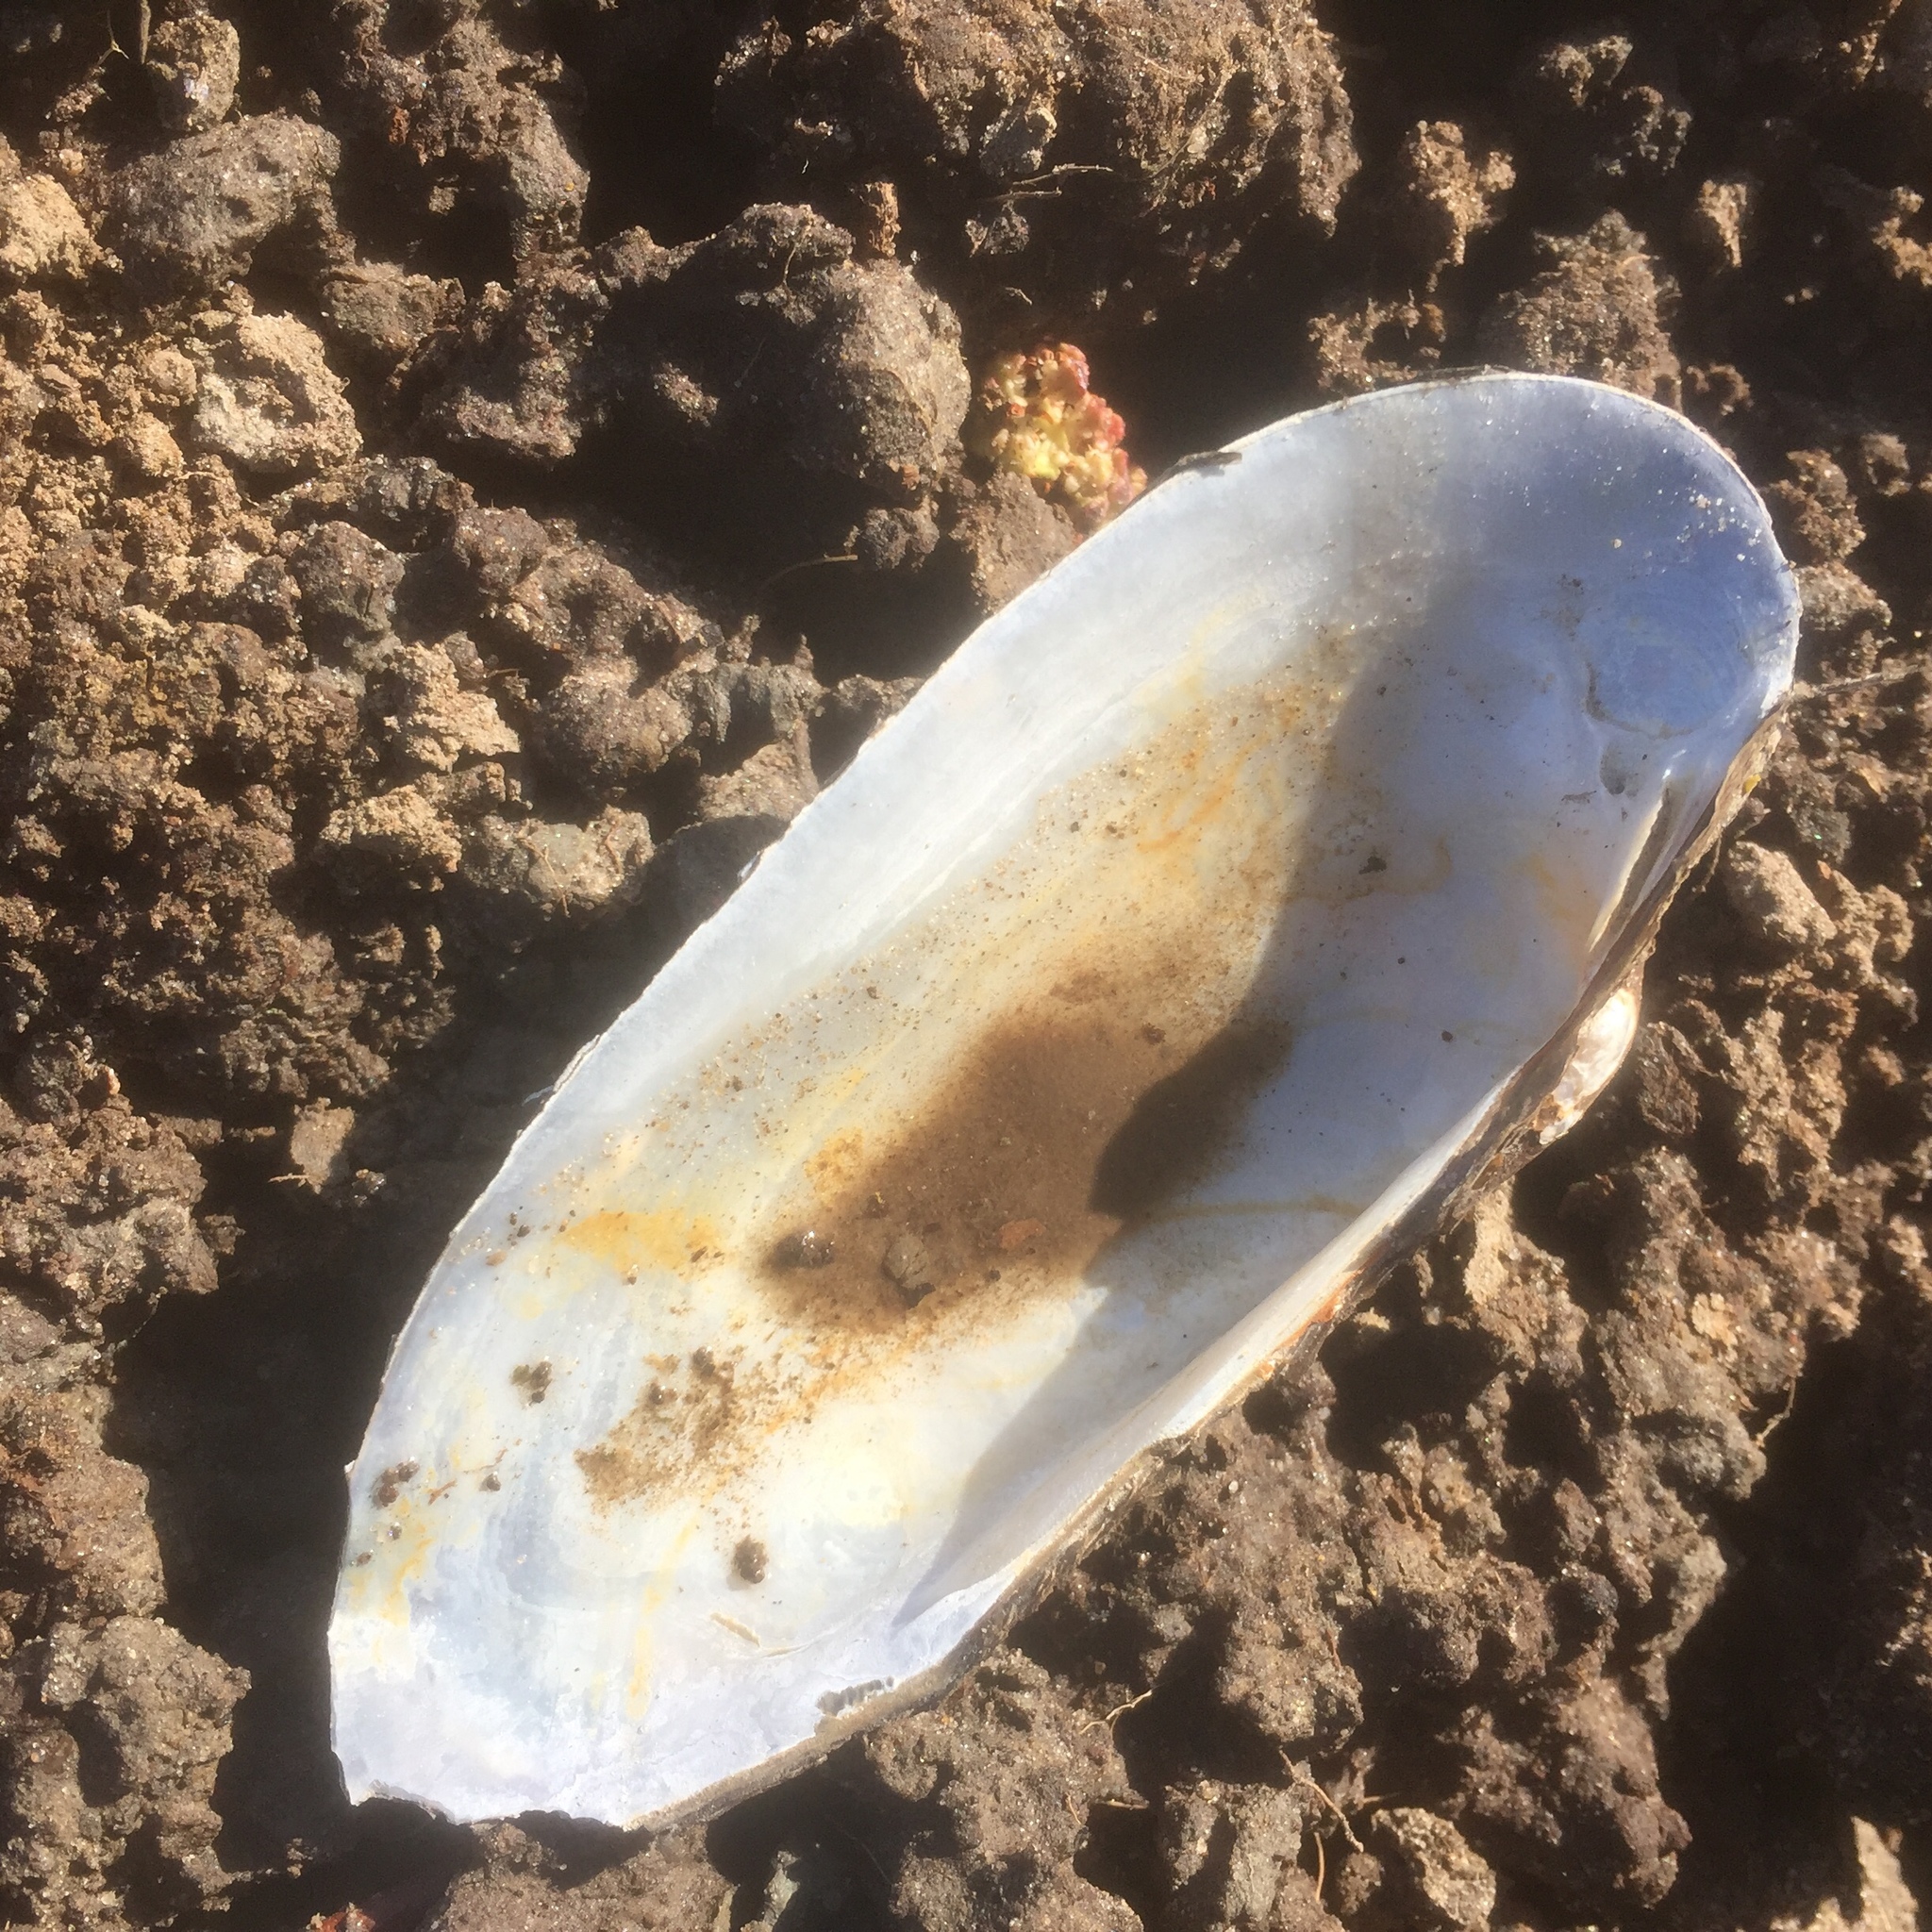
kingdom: Animalia
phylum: Mollusca
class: Bivalvia
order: Unionida
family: Unionidae
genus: Unio
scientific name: Unio pictorum
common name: Painter's mussel
